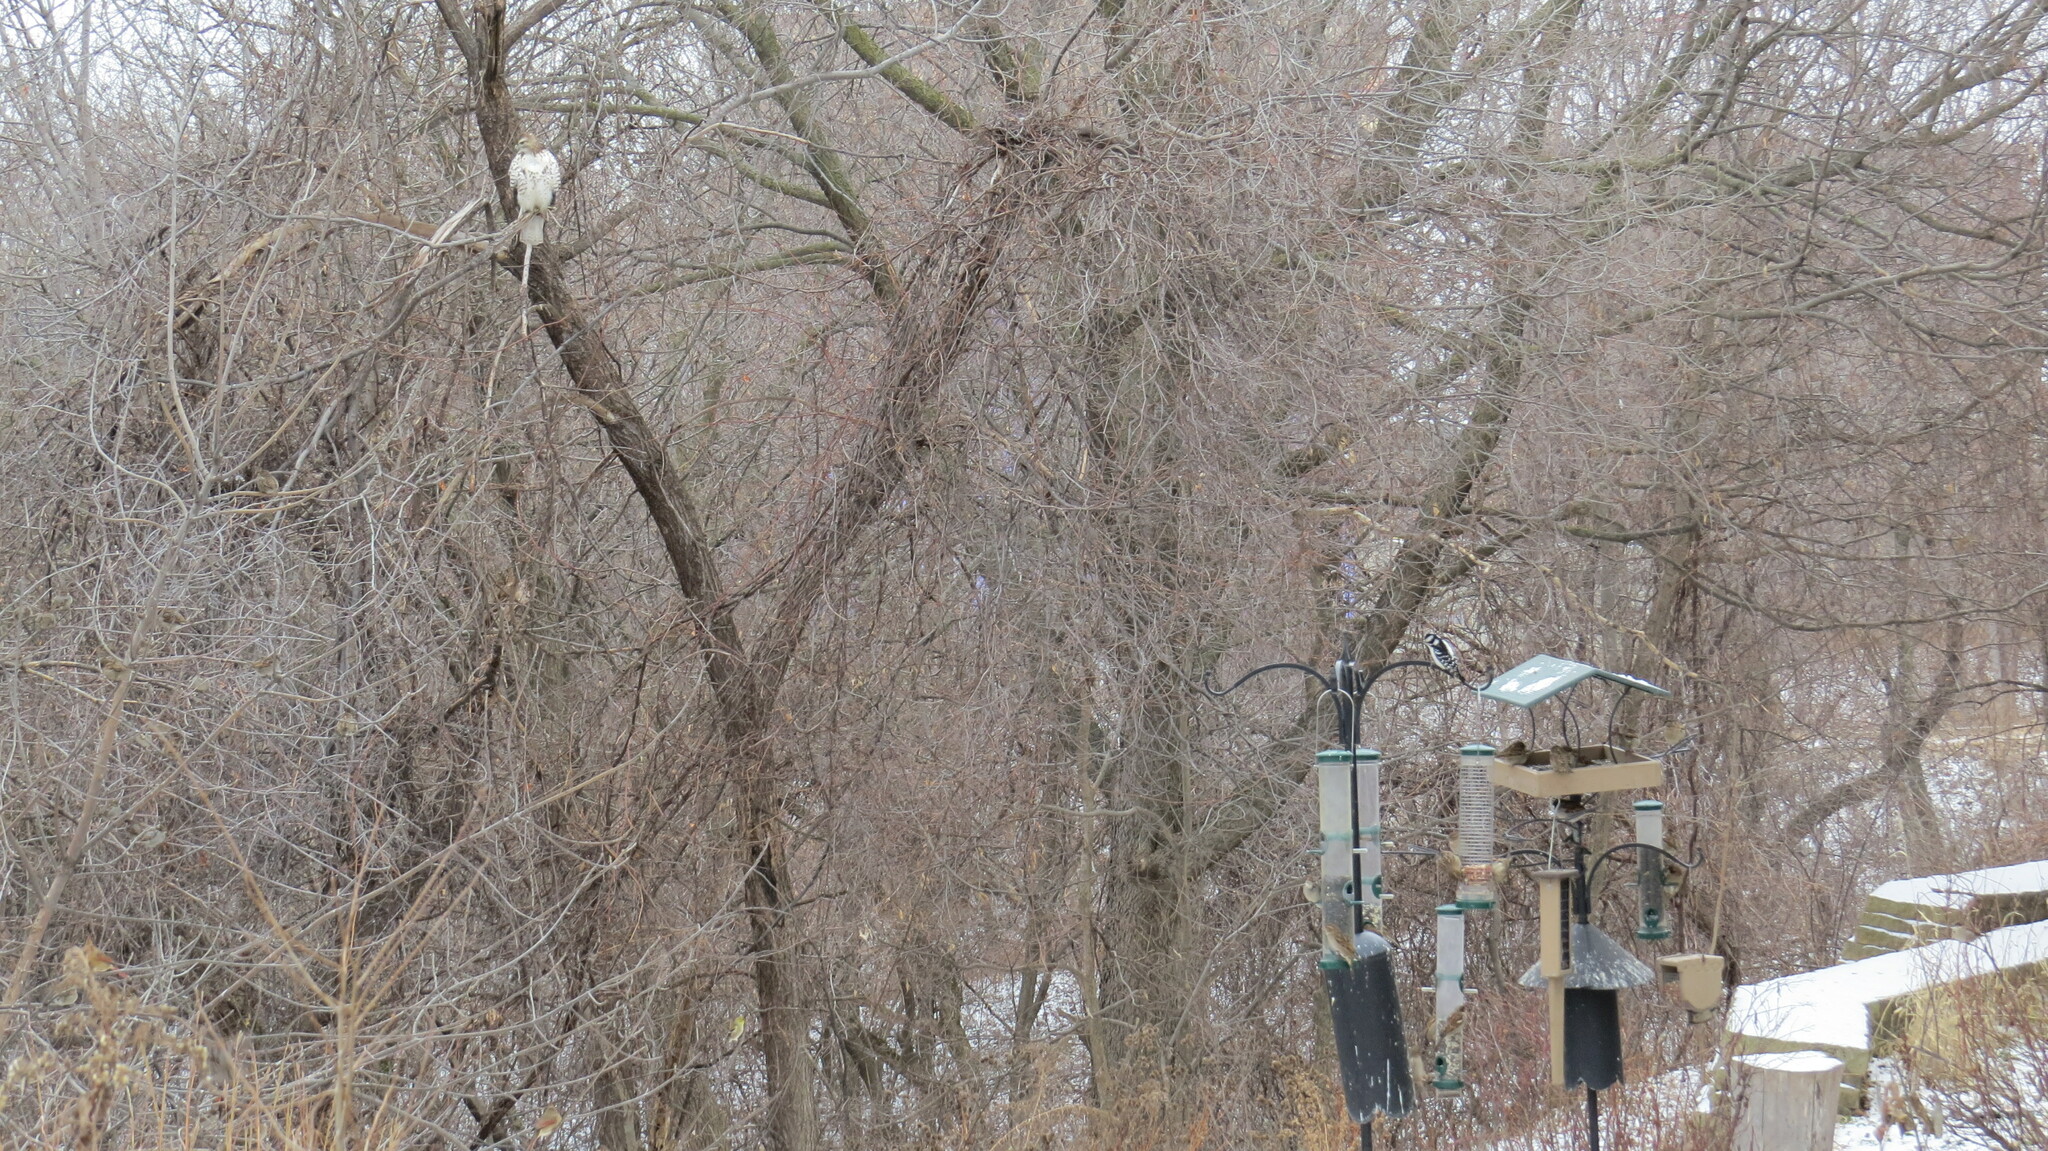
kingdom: Animalia
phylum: Chordata
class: Aves
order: Accipitriformes
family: Accipitridae
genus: Buteo
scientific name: Buteo jamaicensis
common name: Red-tailed hawk
